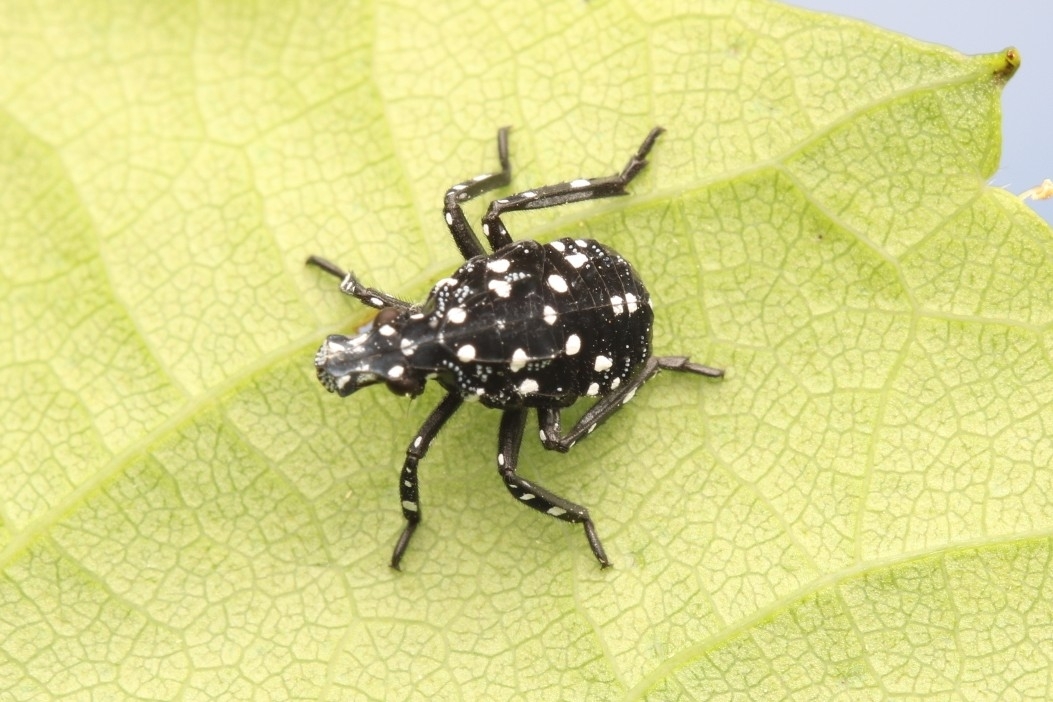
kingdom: Animalia
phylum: Arthropoda
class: Insecta
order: Hemiptera
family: Fulgoridae
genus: Lycorma
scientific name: Lycorma delicatula
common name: Spotted lanternfly
